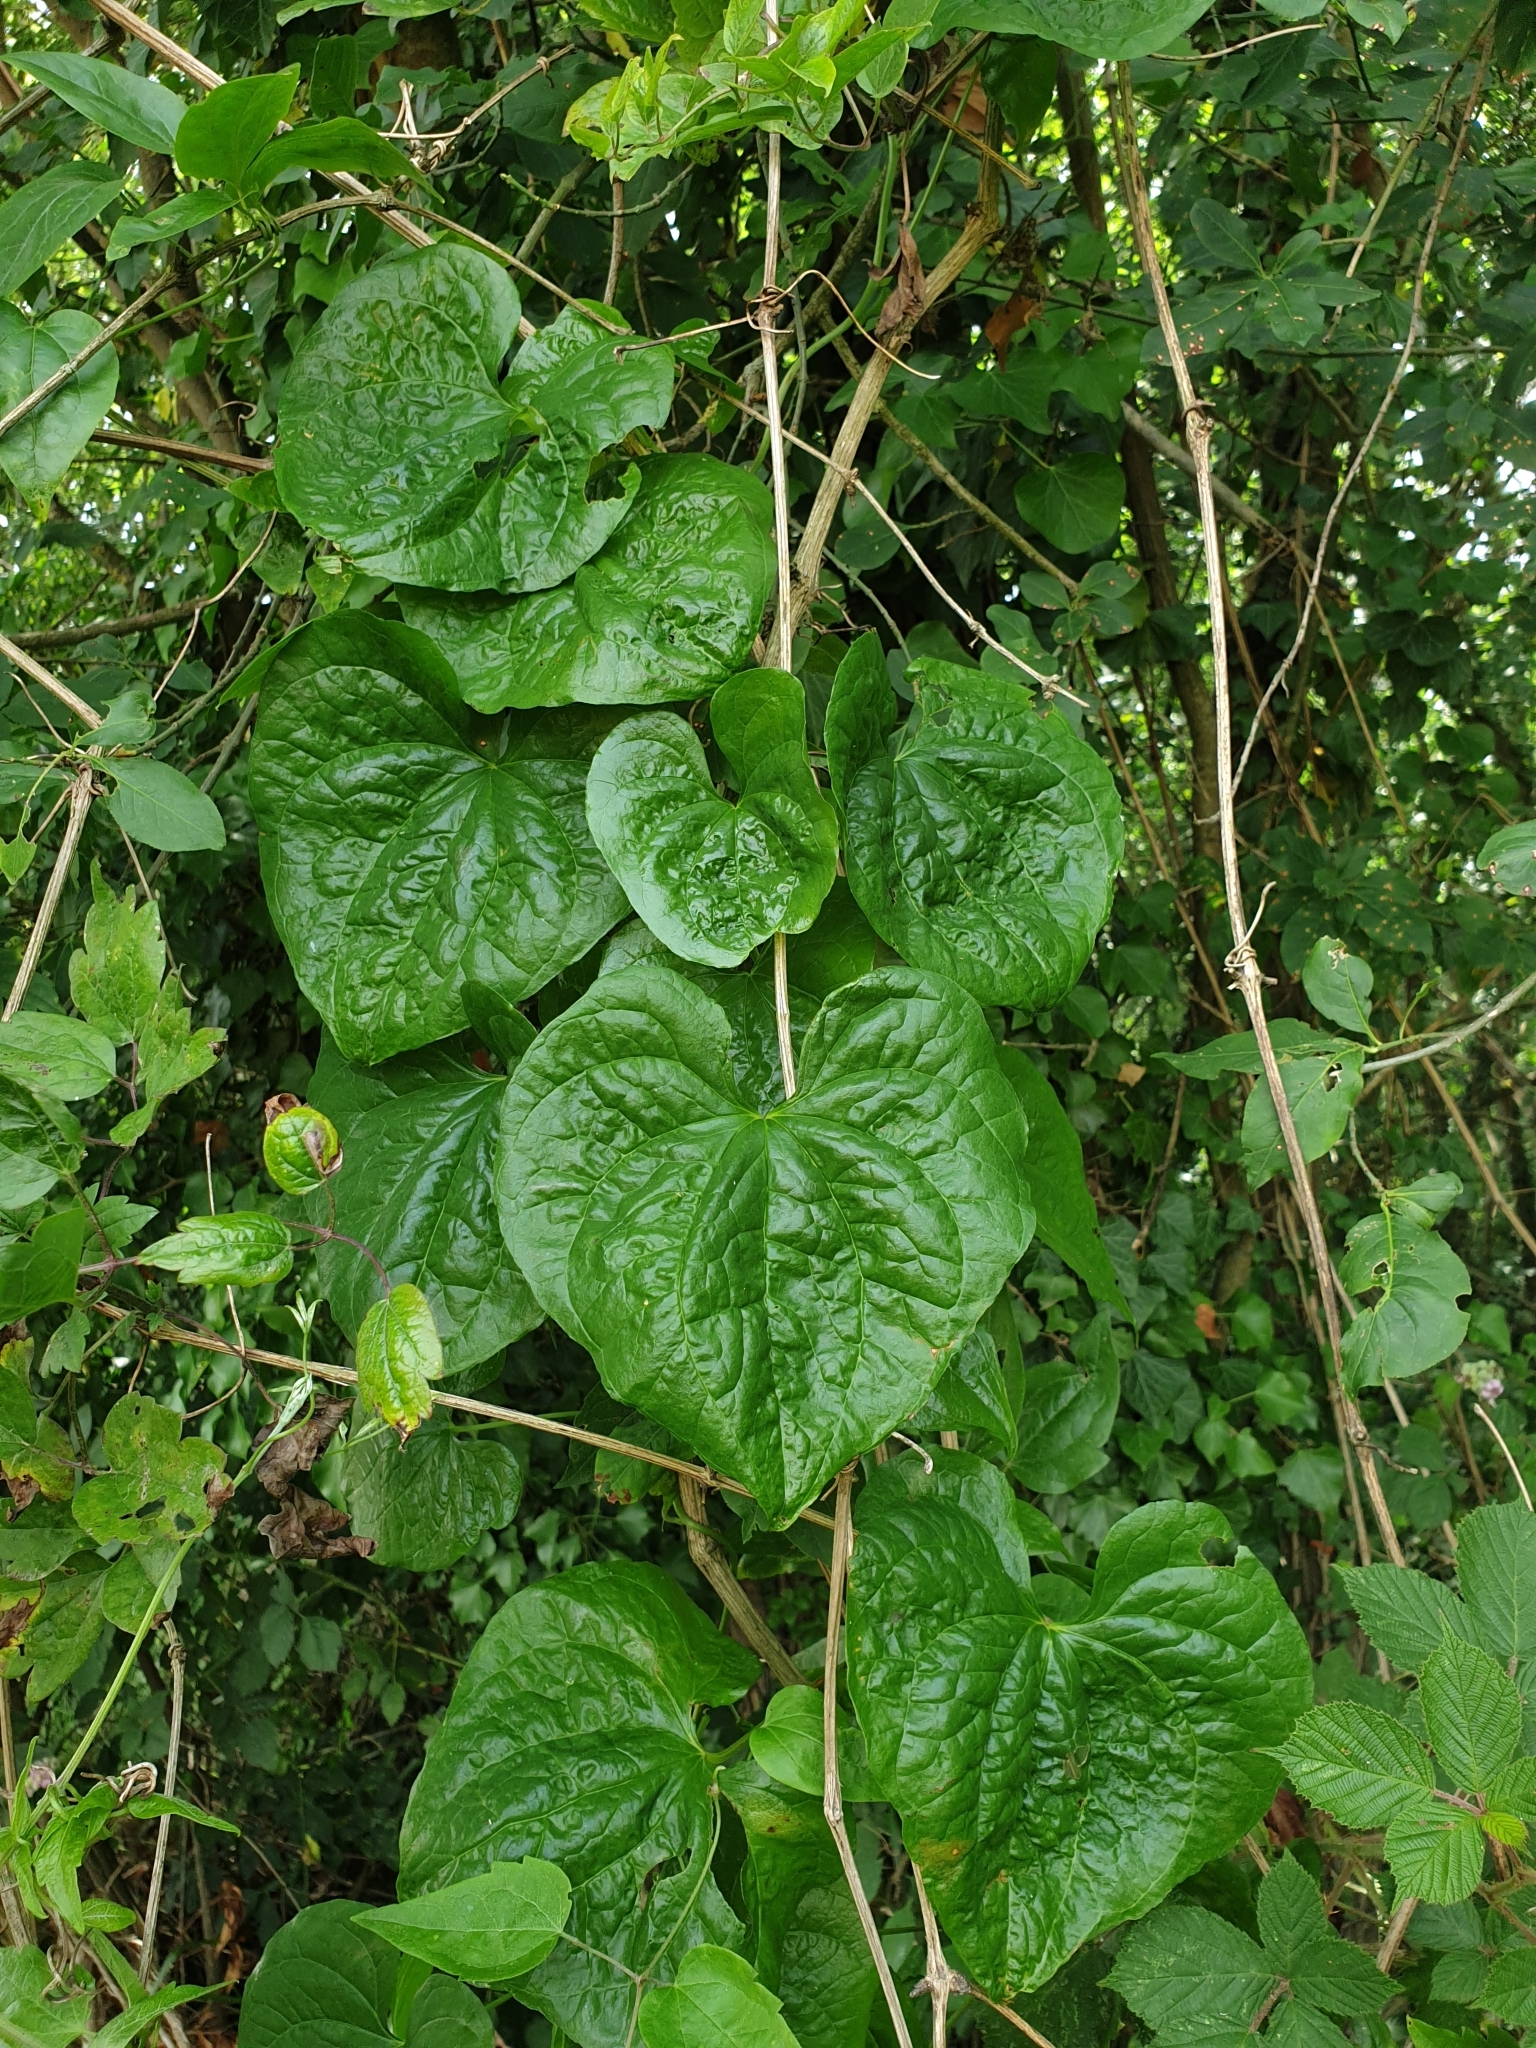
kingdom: Plantae
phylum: Tracheophyta
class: Liliopsida
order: Dioscoreales
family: Dioscoreaceae
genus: Dioscorea
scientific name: Dioscorea communis
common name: Black-bindweed
